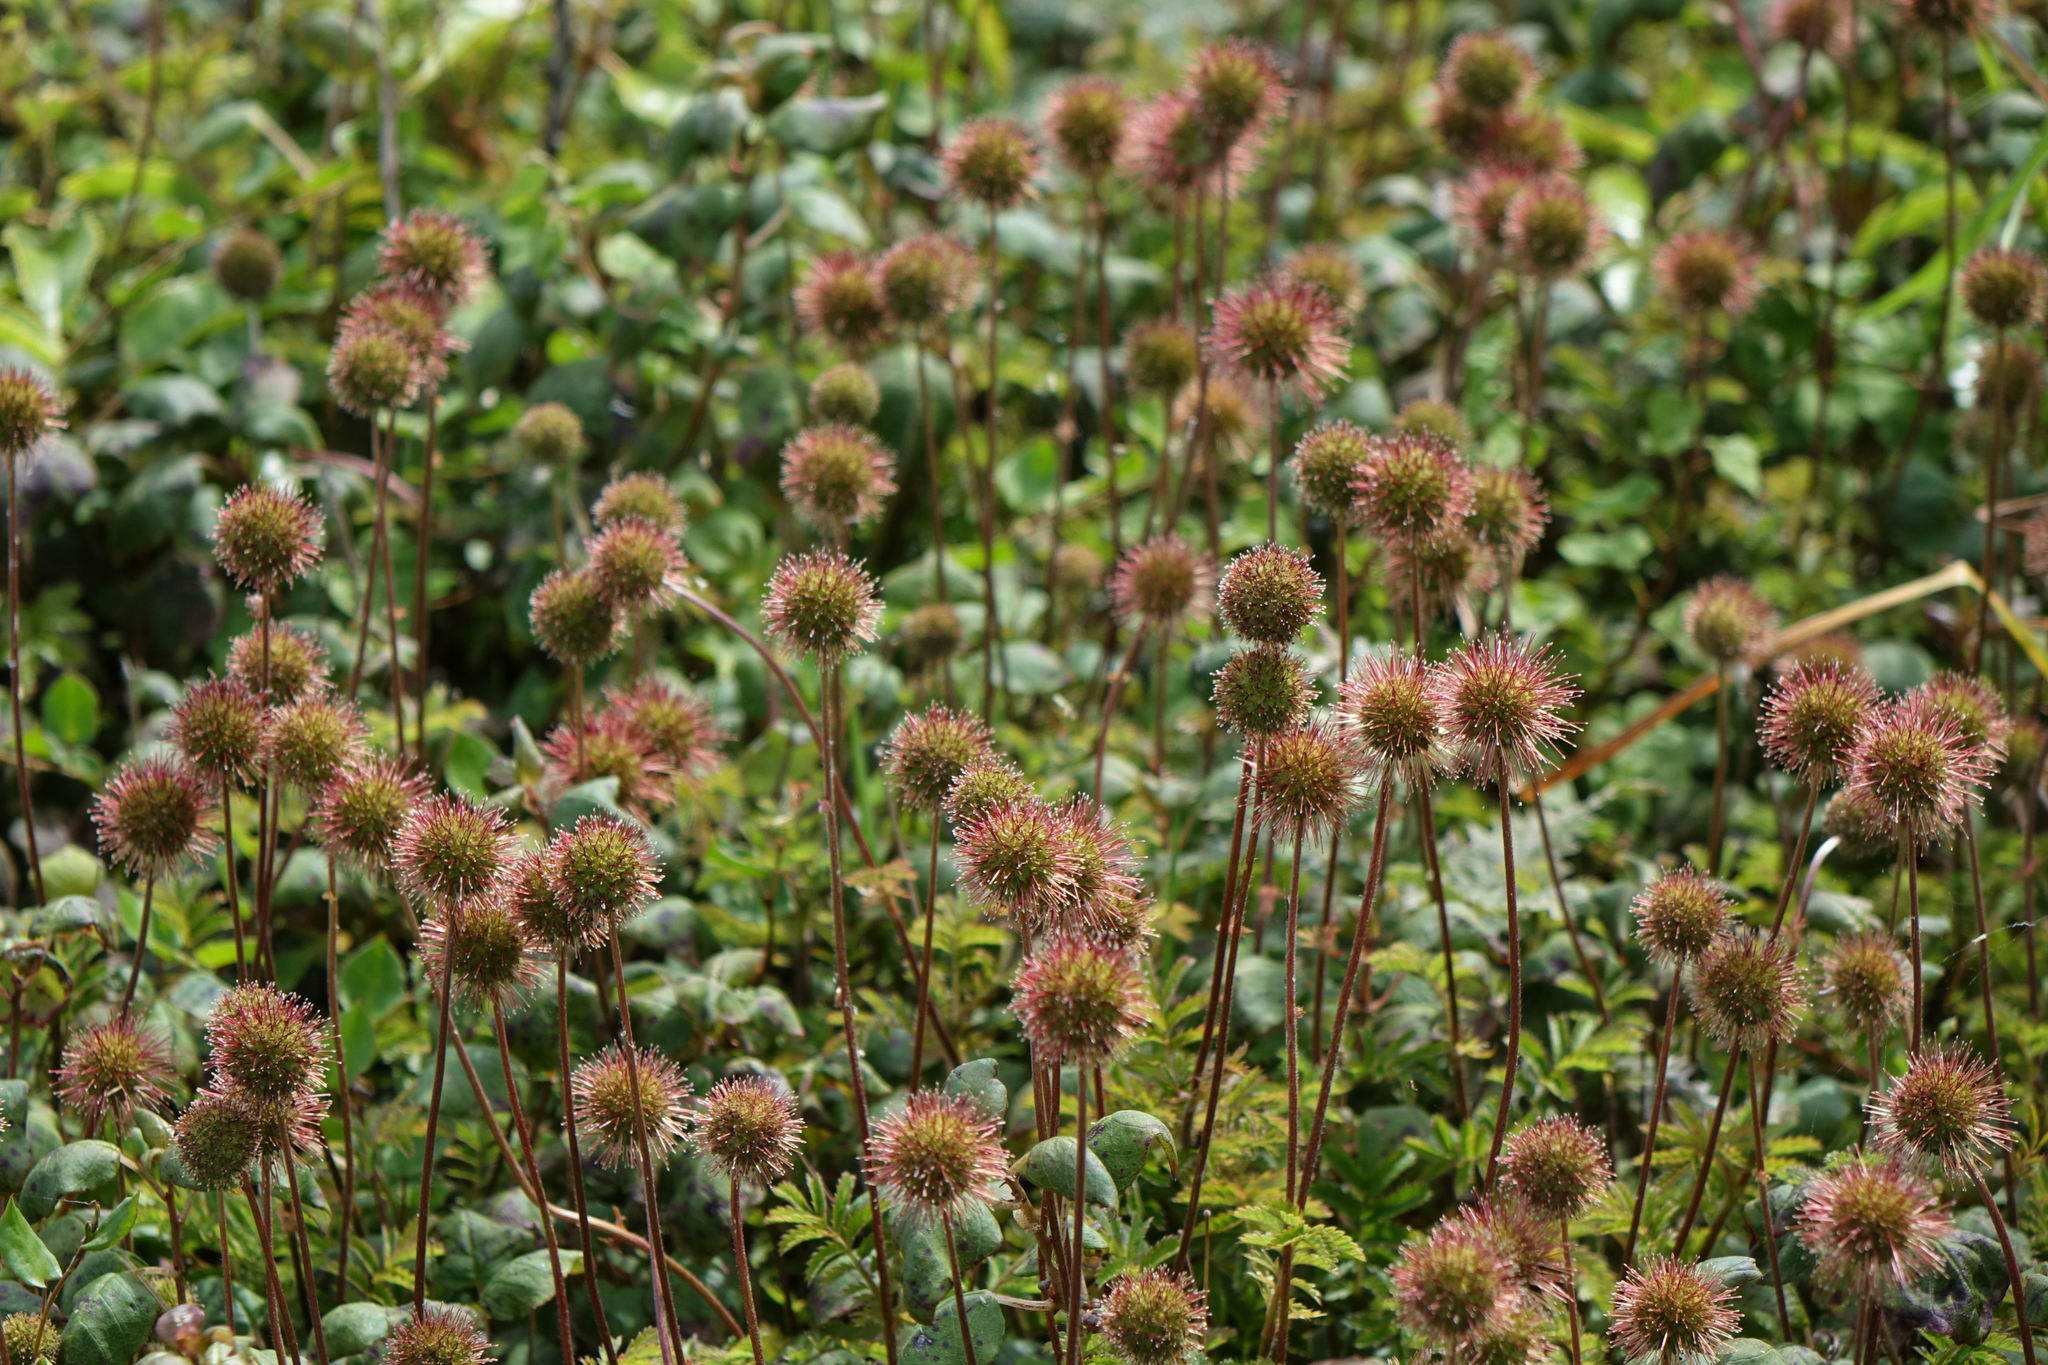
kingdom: Plantae
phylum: Tracheophyta
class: Magnoliopsida
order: Rosales
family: Rosaceae
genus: Acaena
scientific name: Acaena novae-zelandiae
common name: Pirri-pirri-bur
